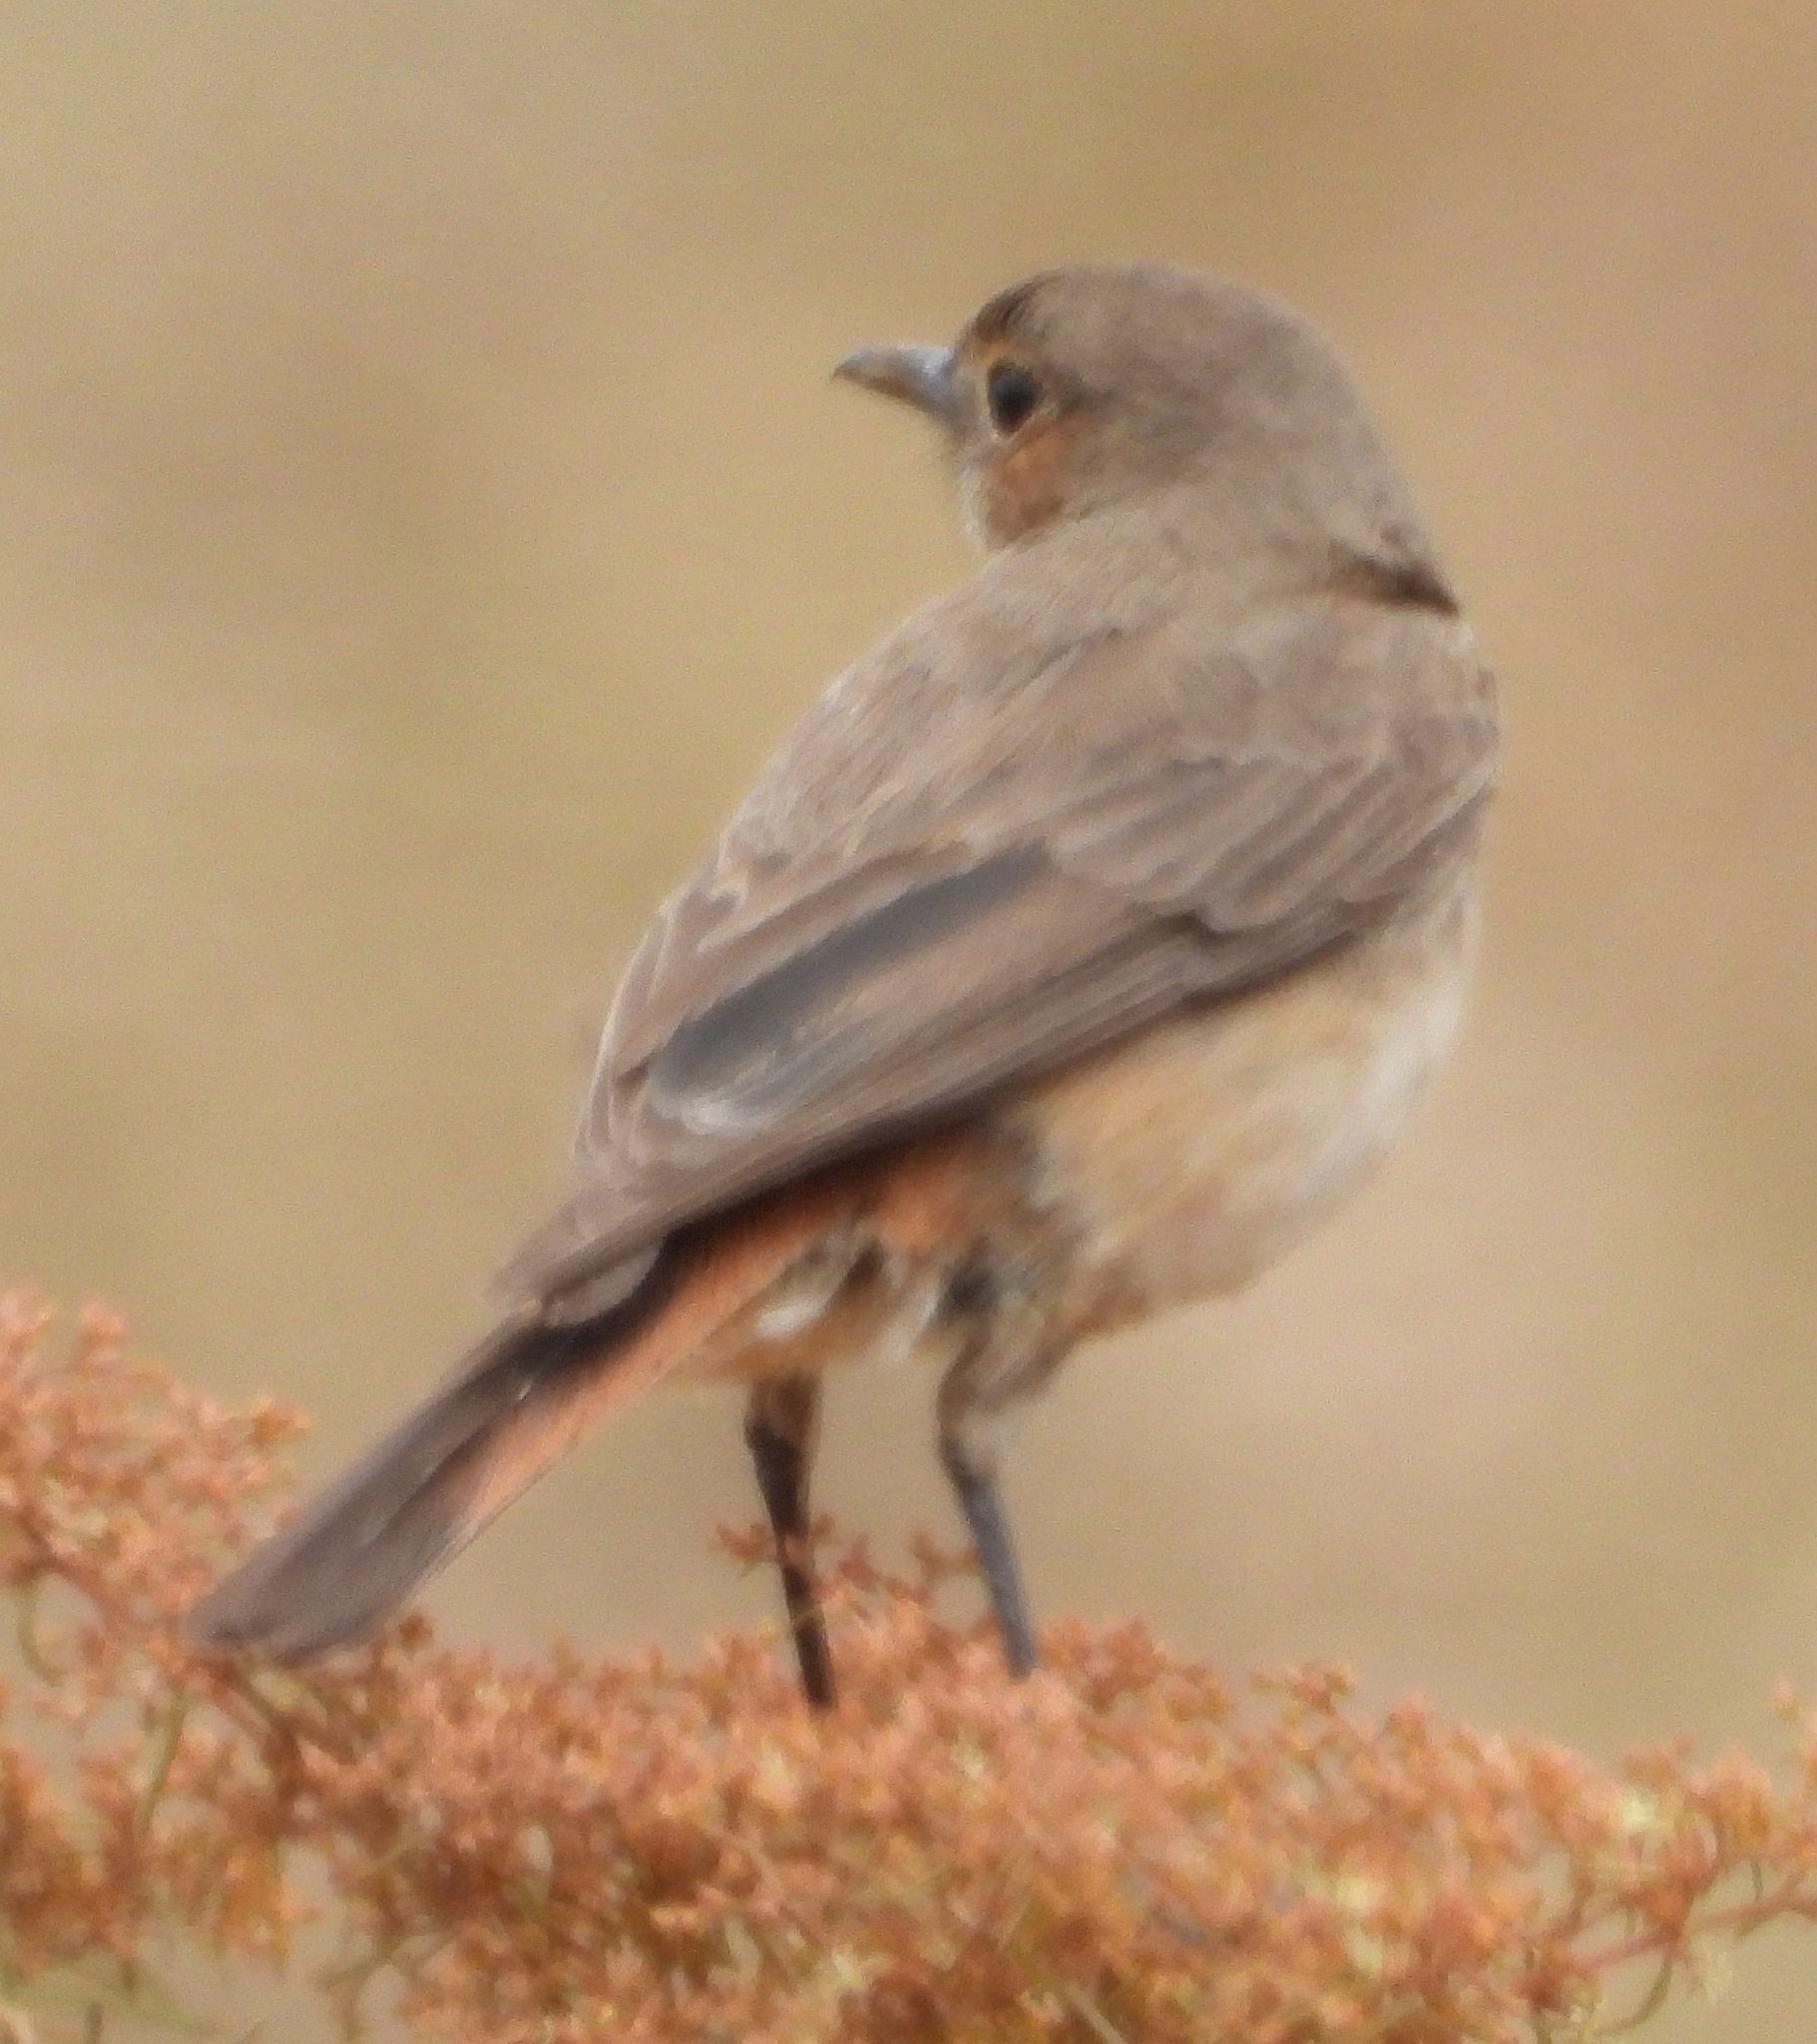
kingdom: Animalia
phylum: Chordata
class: Aves
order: Passeriformes
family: Muscicapidae
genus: Oenanthe
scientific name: Oenanthe familiaris
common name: Familiar chat
